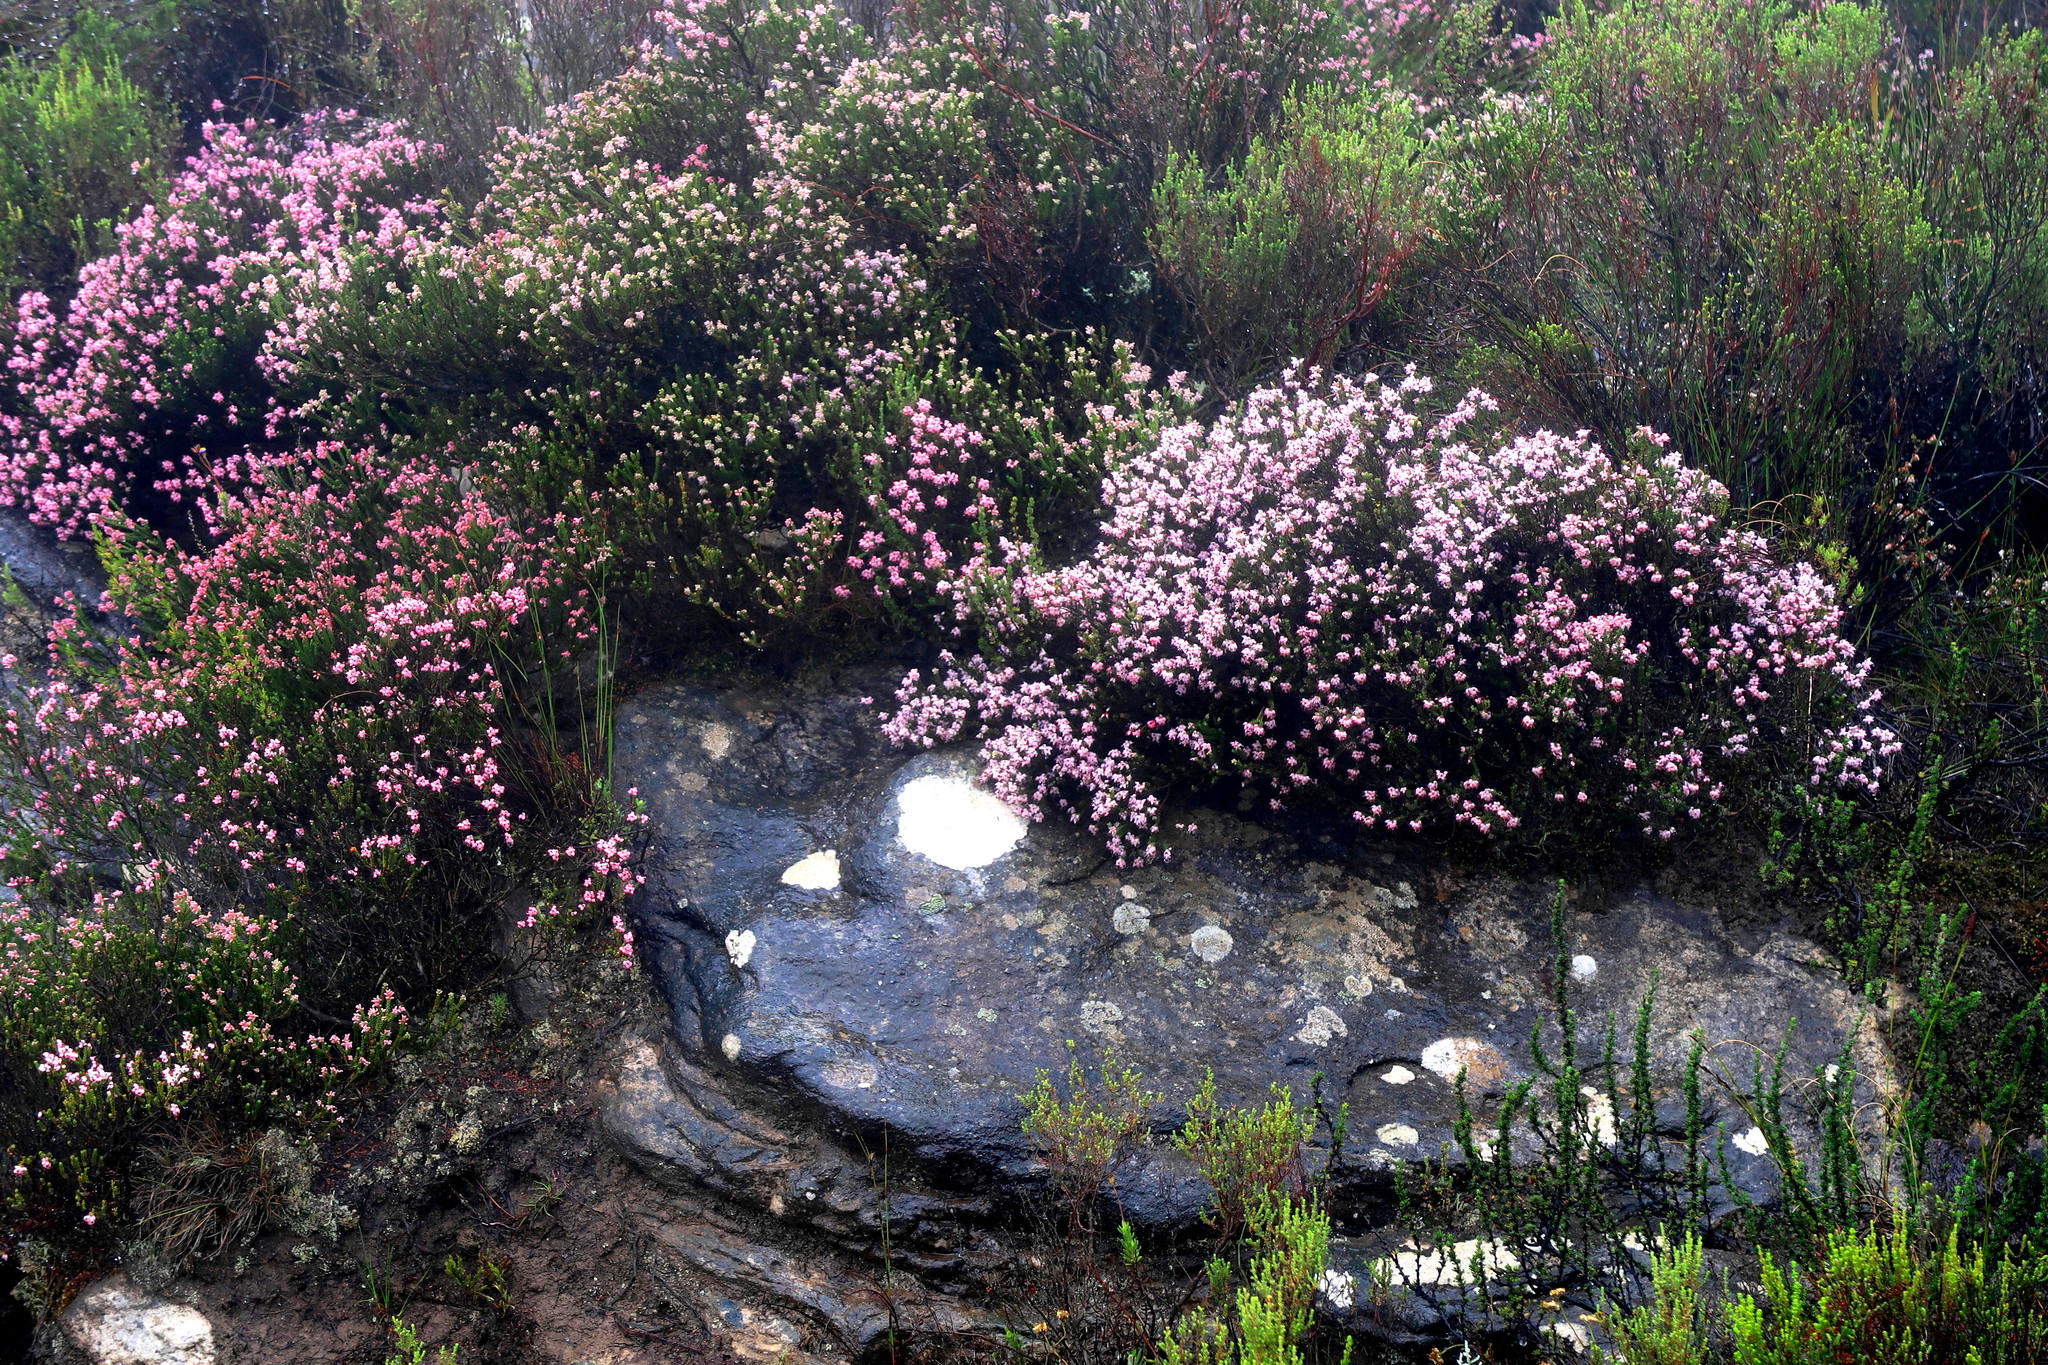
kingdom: Plantae
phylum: Tracheophyta
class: Magnoliopsida
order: Ericales
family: Ericaceae
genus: Erica
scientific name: Erica petraea
